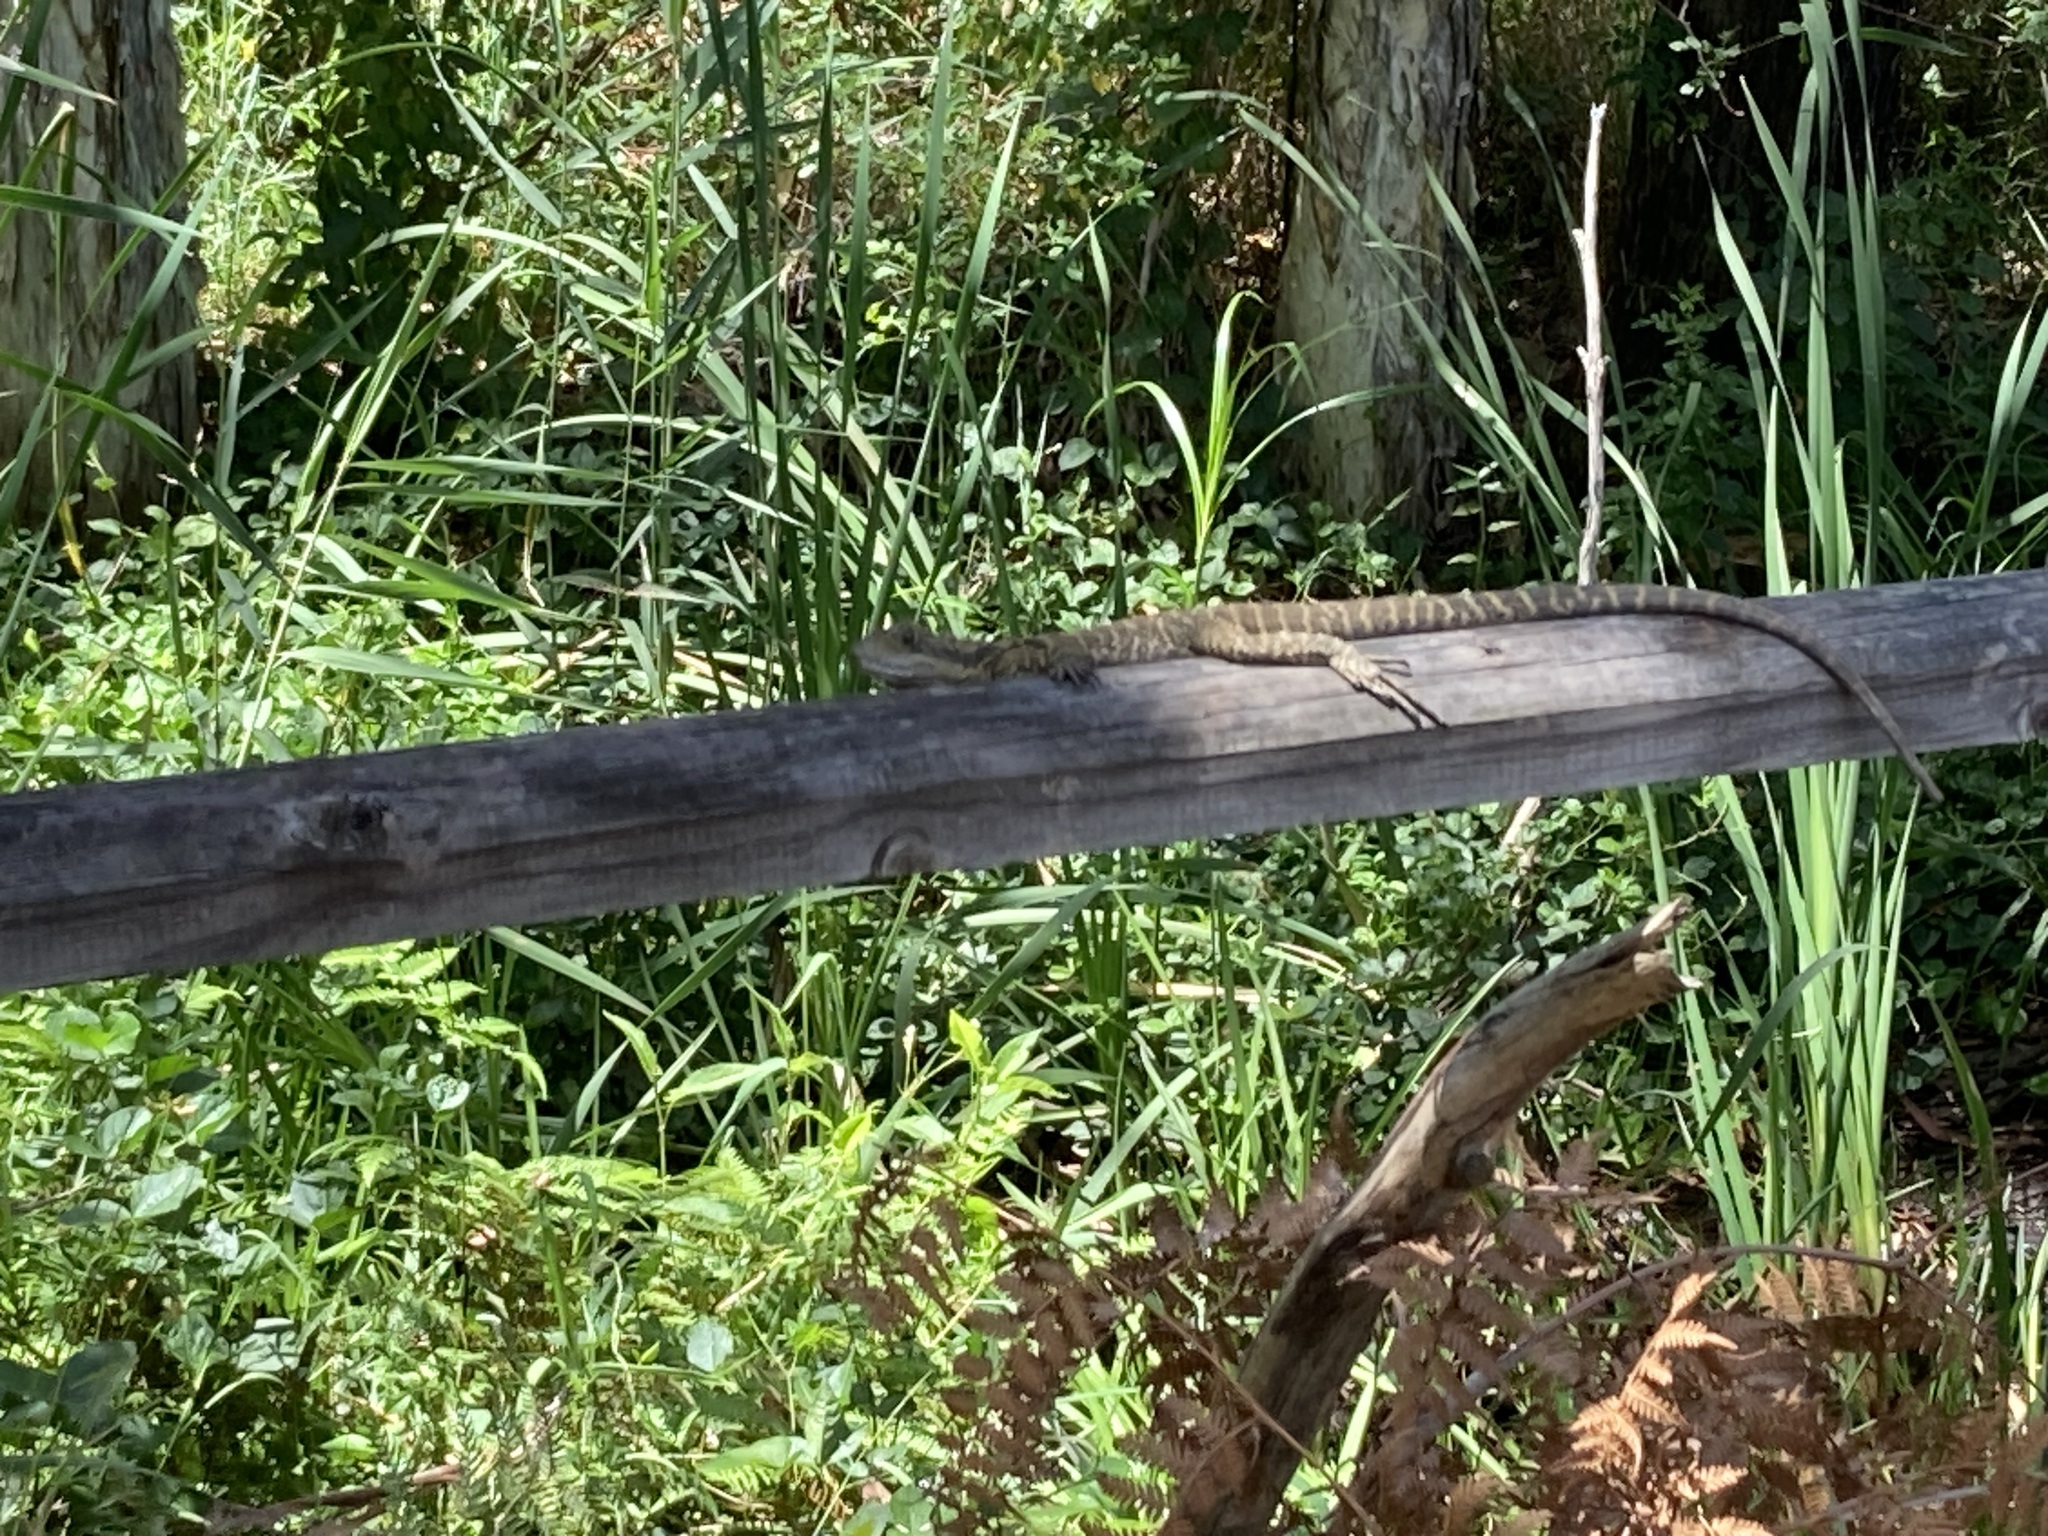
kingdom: Animalia
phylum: Chordata
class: Squamata
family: Agamidae
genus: Intellagama
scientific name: Intellagama lesueurii
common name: Eastern water dragon
